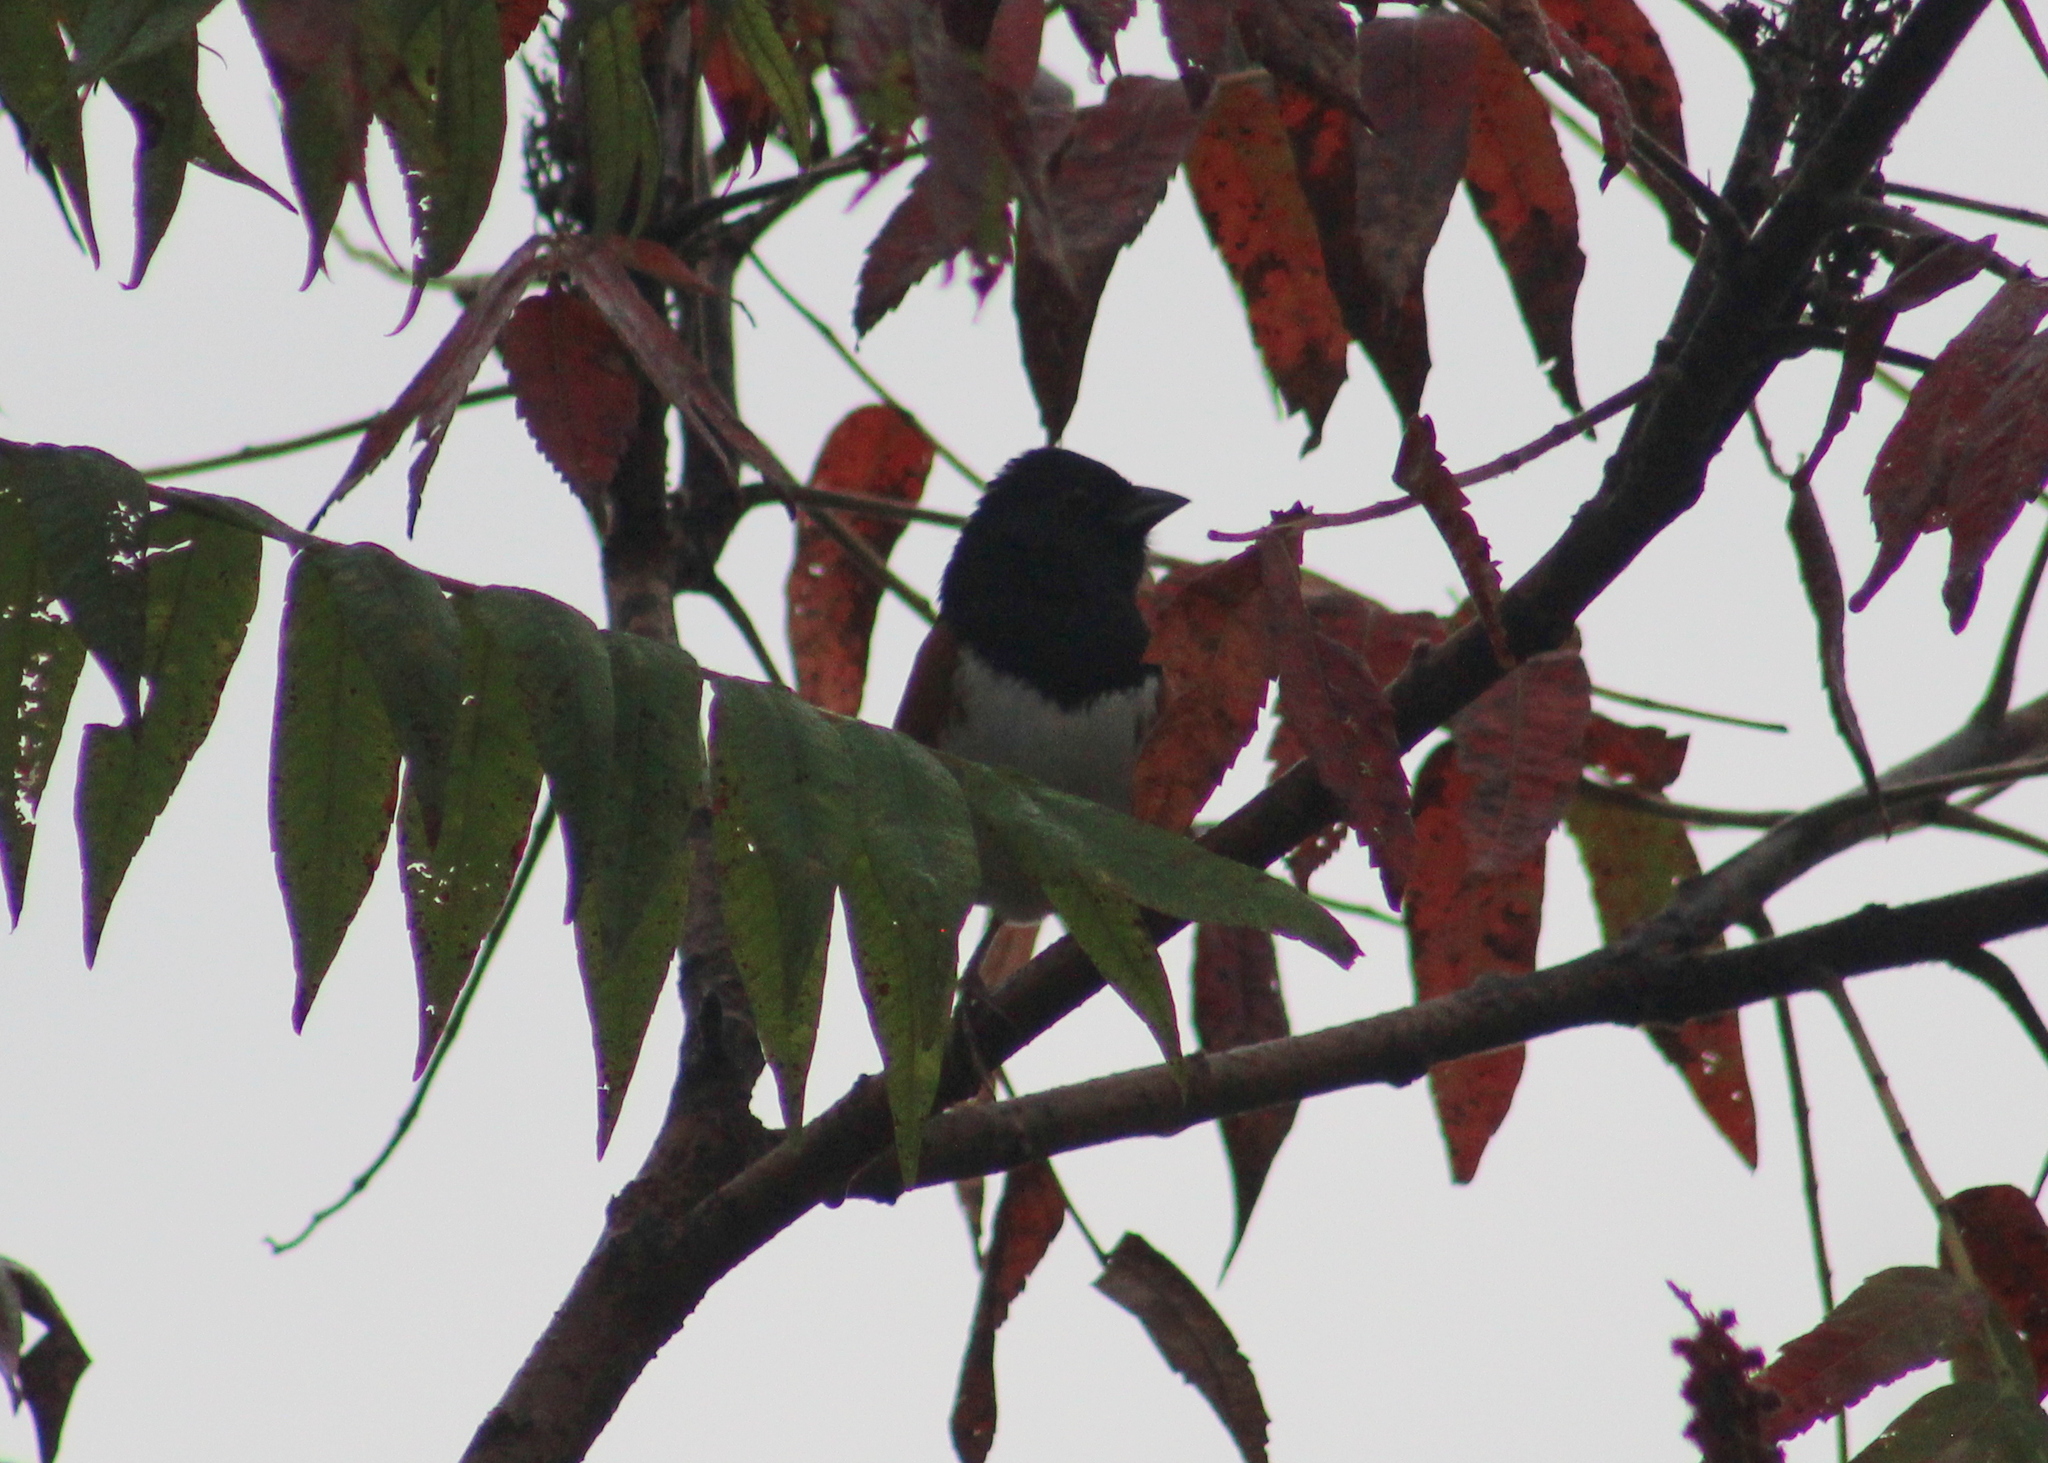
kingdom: Animalia
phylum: Chordata
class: Aves
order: Passeriformes
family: Passerellidae
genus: Pipilo
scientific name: Pipilo erythrophthalmus
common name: Eastern towhee
